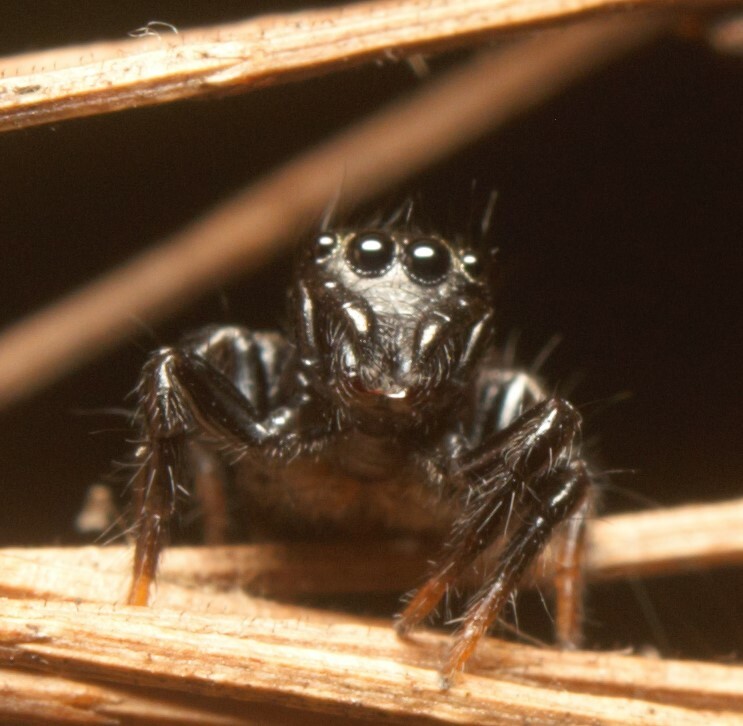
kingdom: Animalia
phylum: Arthropoda
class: Arachnida
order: Araneae
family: Salticidae
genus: Zenodorus
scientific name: Zenodorus orbiculatus
